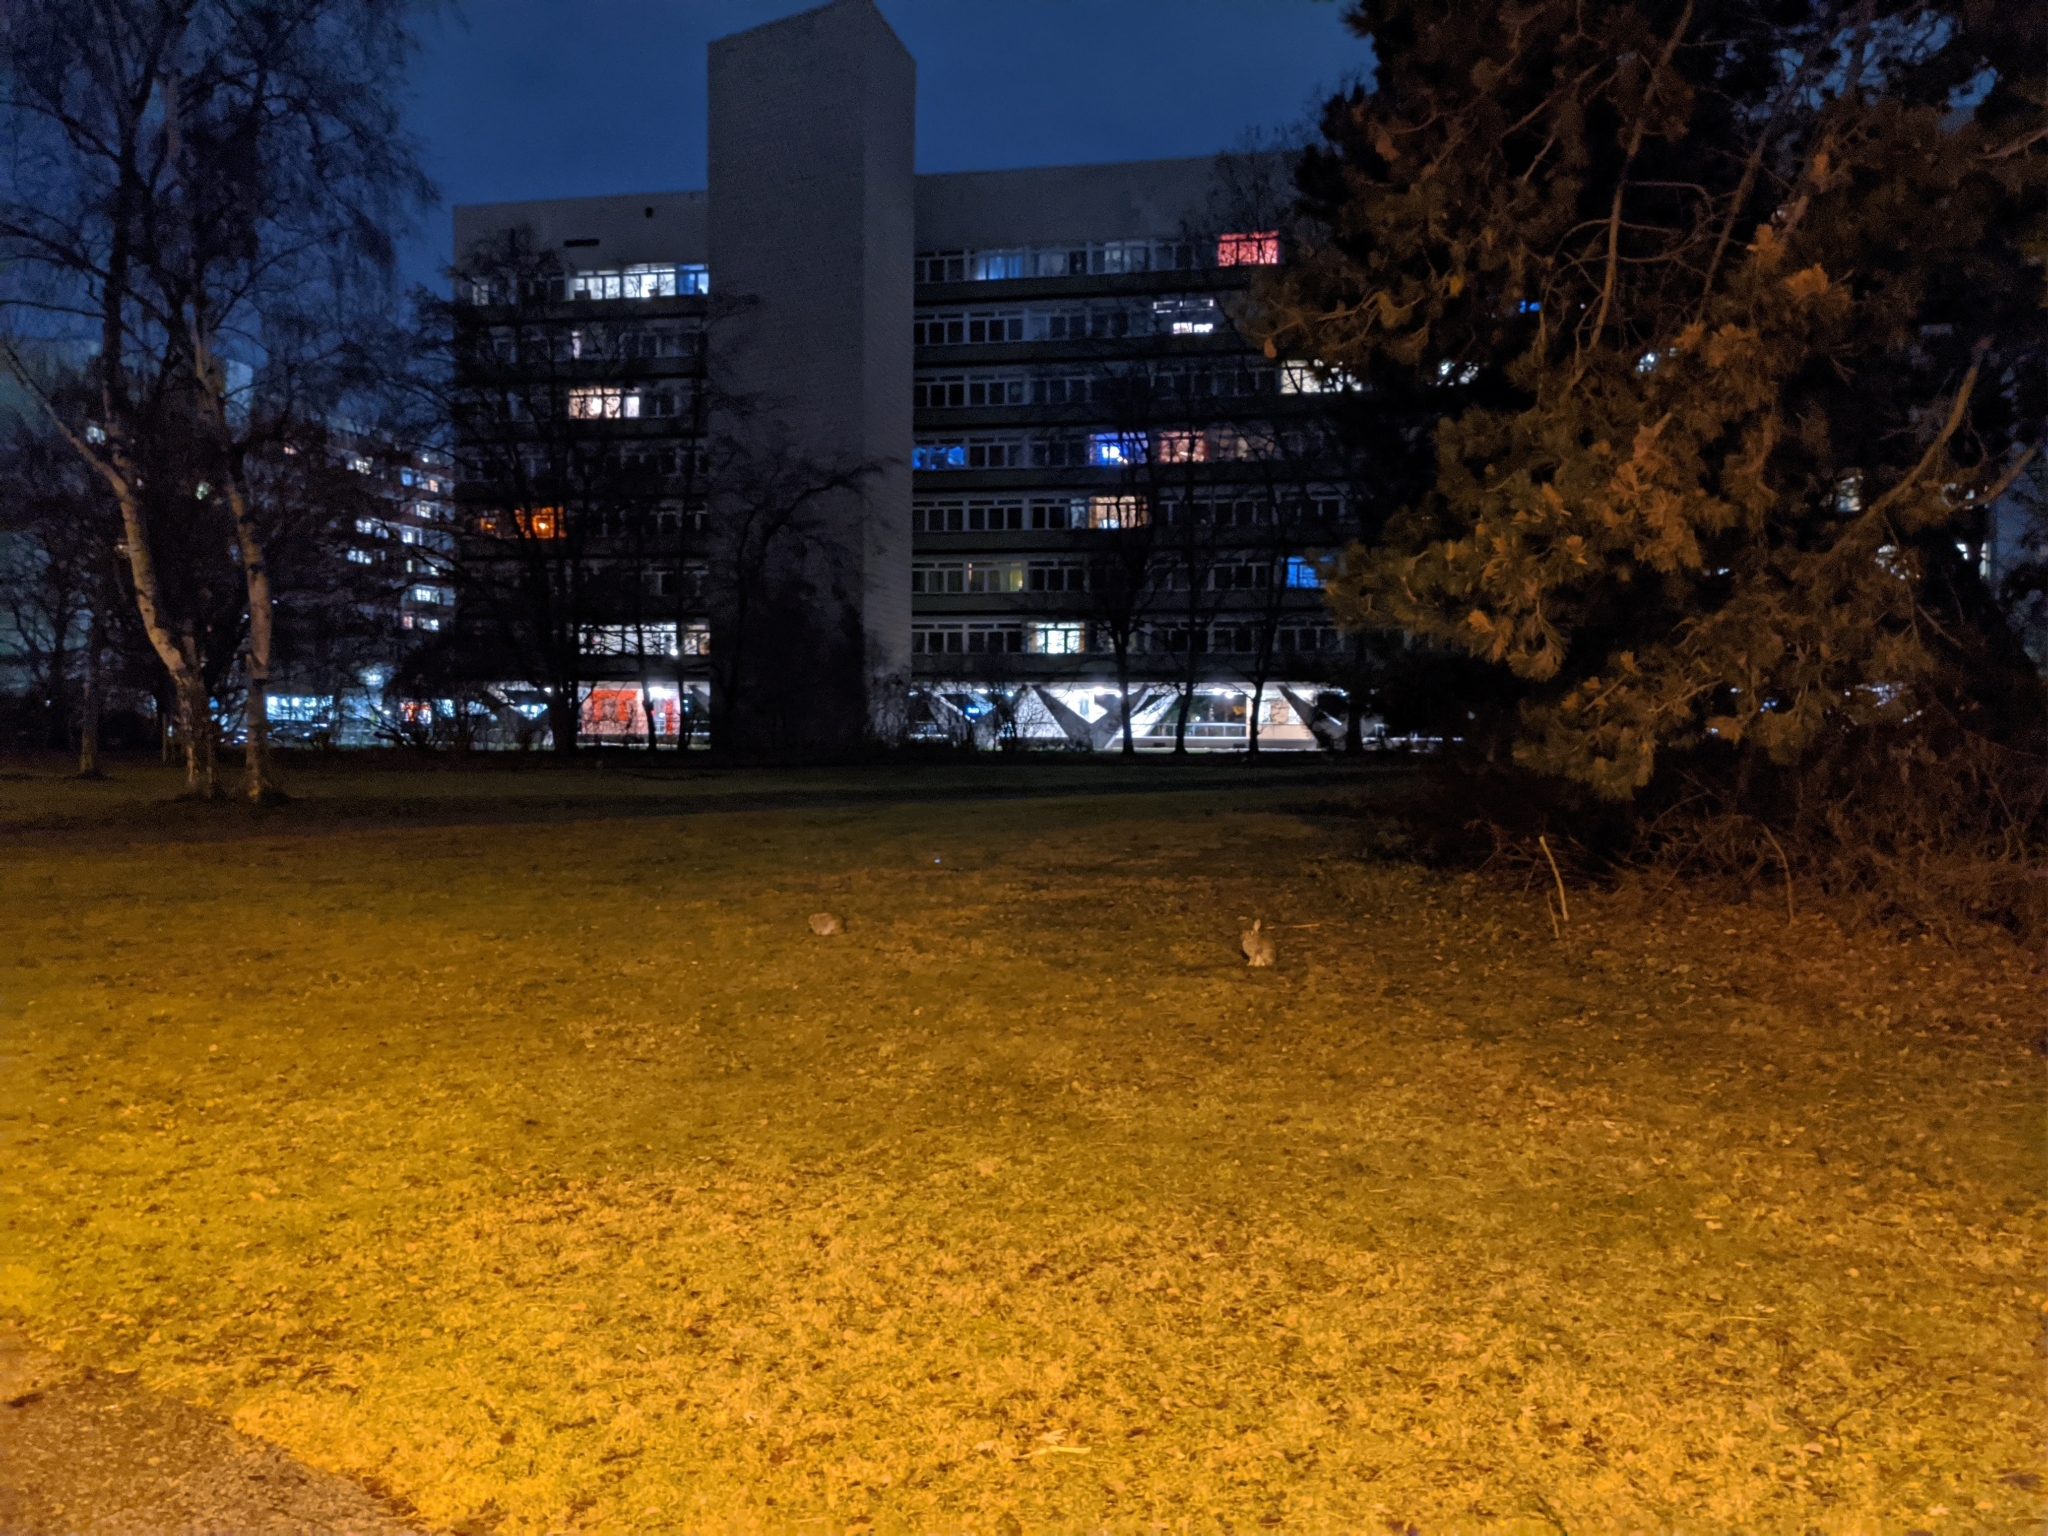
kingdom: Animalia
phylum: Chordata
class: Mammalia
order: Lagomorpha
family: Leporidae
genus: Oryctolagus
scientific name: Oryctolagus cuniculus
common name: European rabbit
